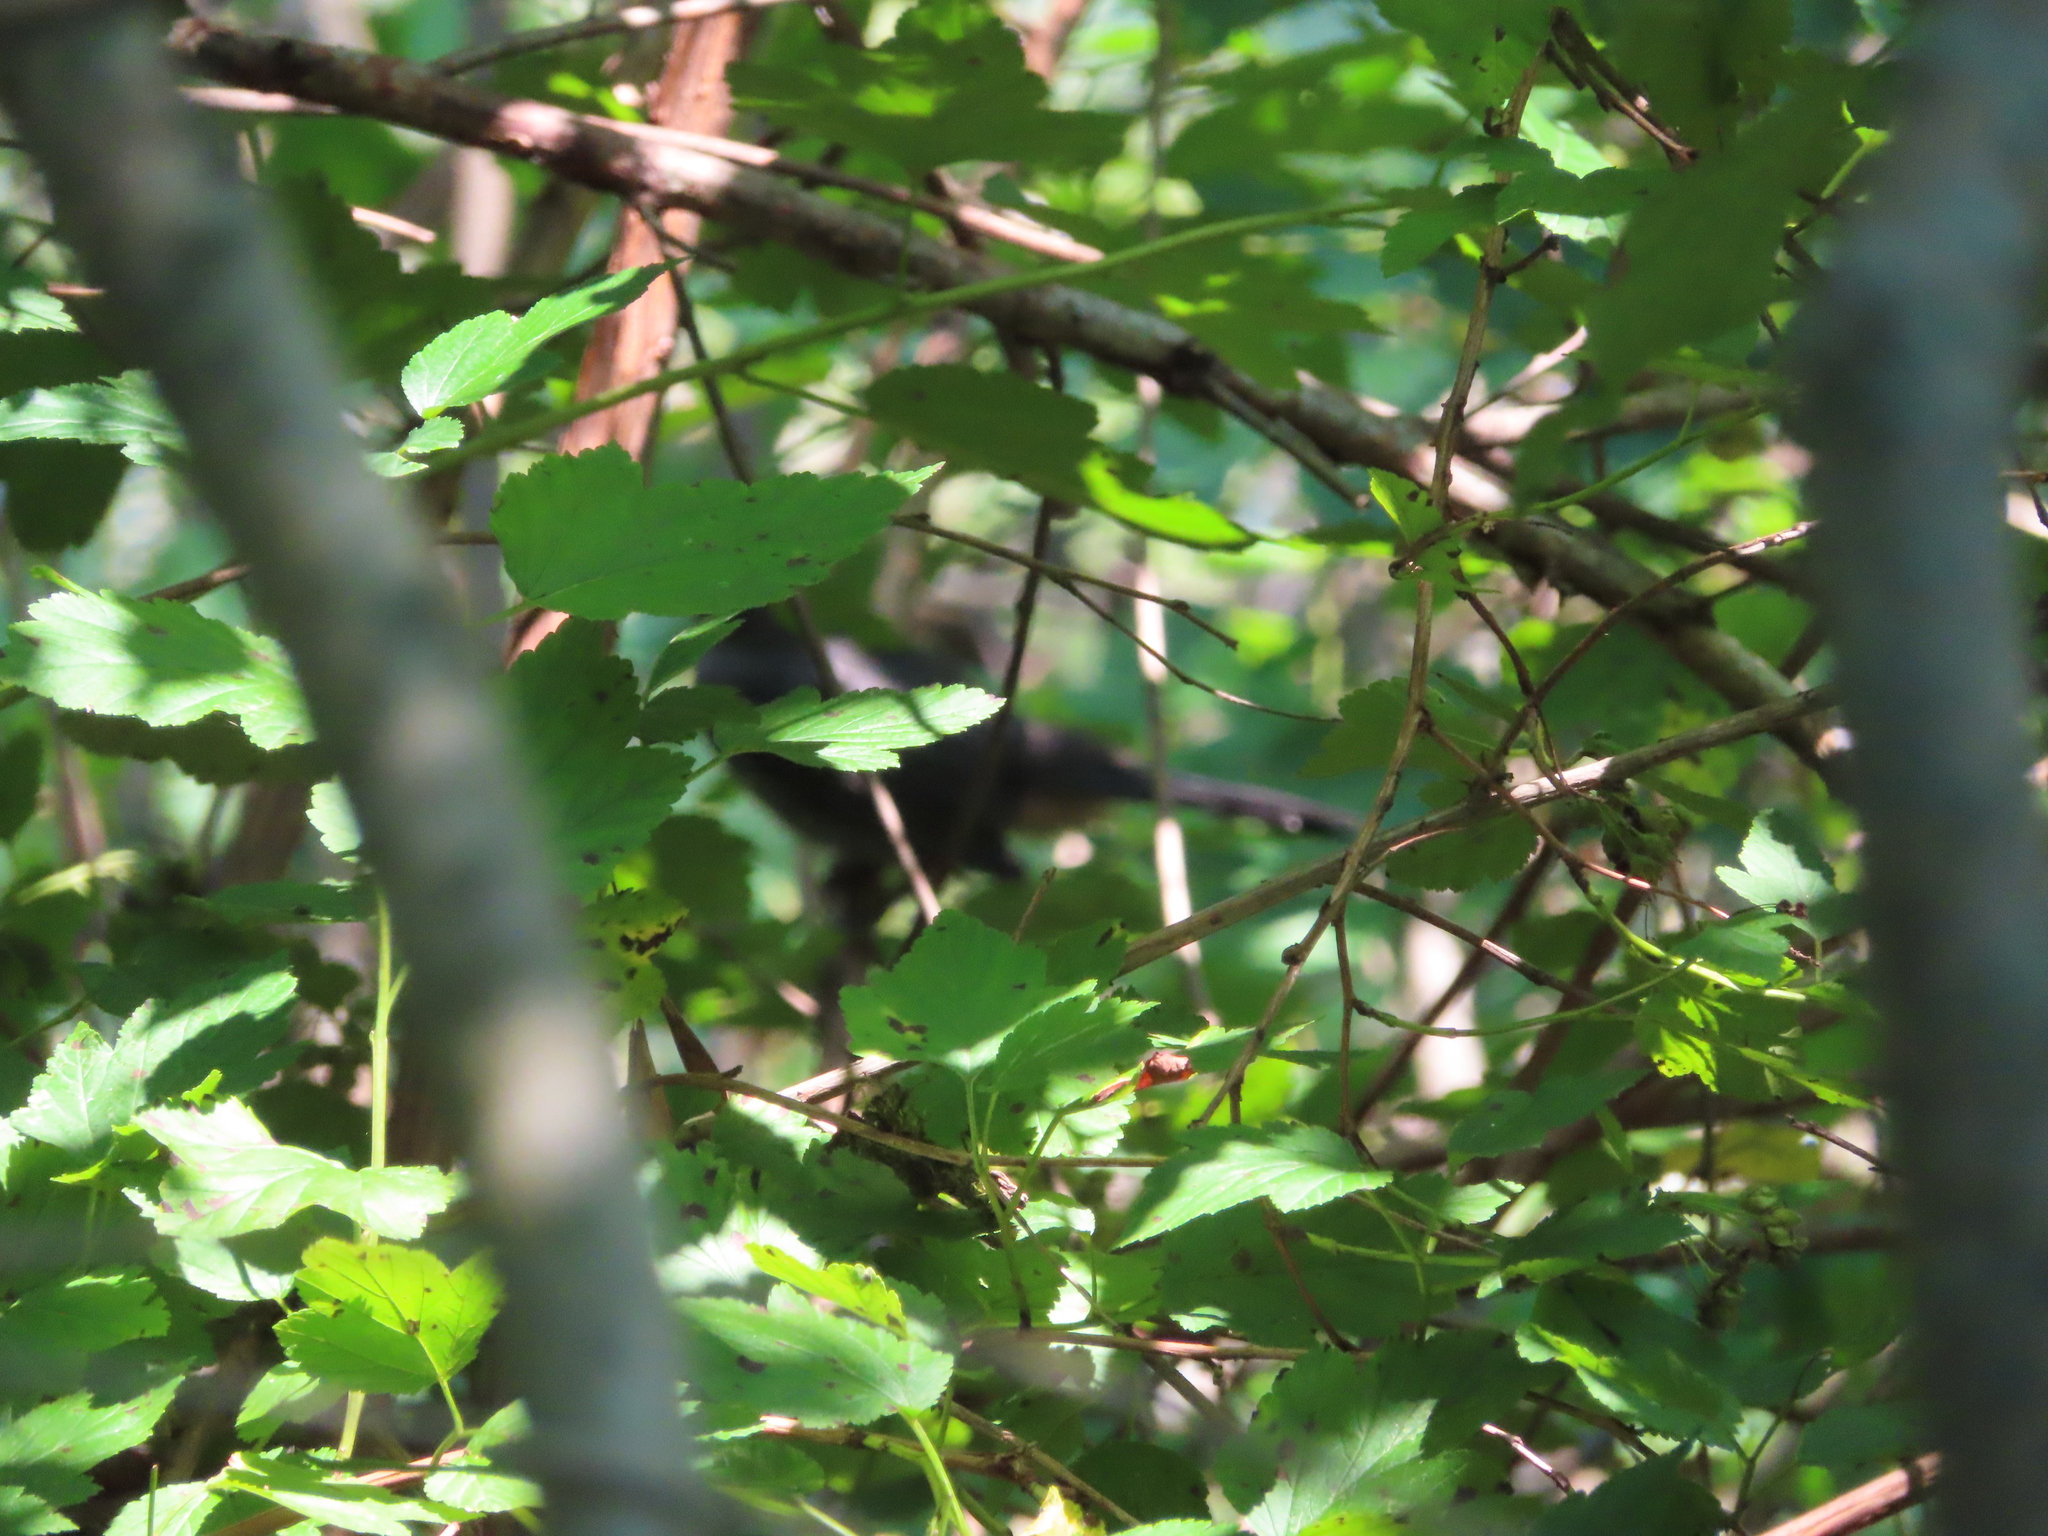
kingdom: Animalia
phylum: Chordata
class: Aves
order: Passeriformes
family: Mimidae
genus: Dumetella
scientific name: Dumetella carolinensis
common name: Gray catbird
